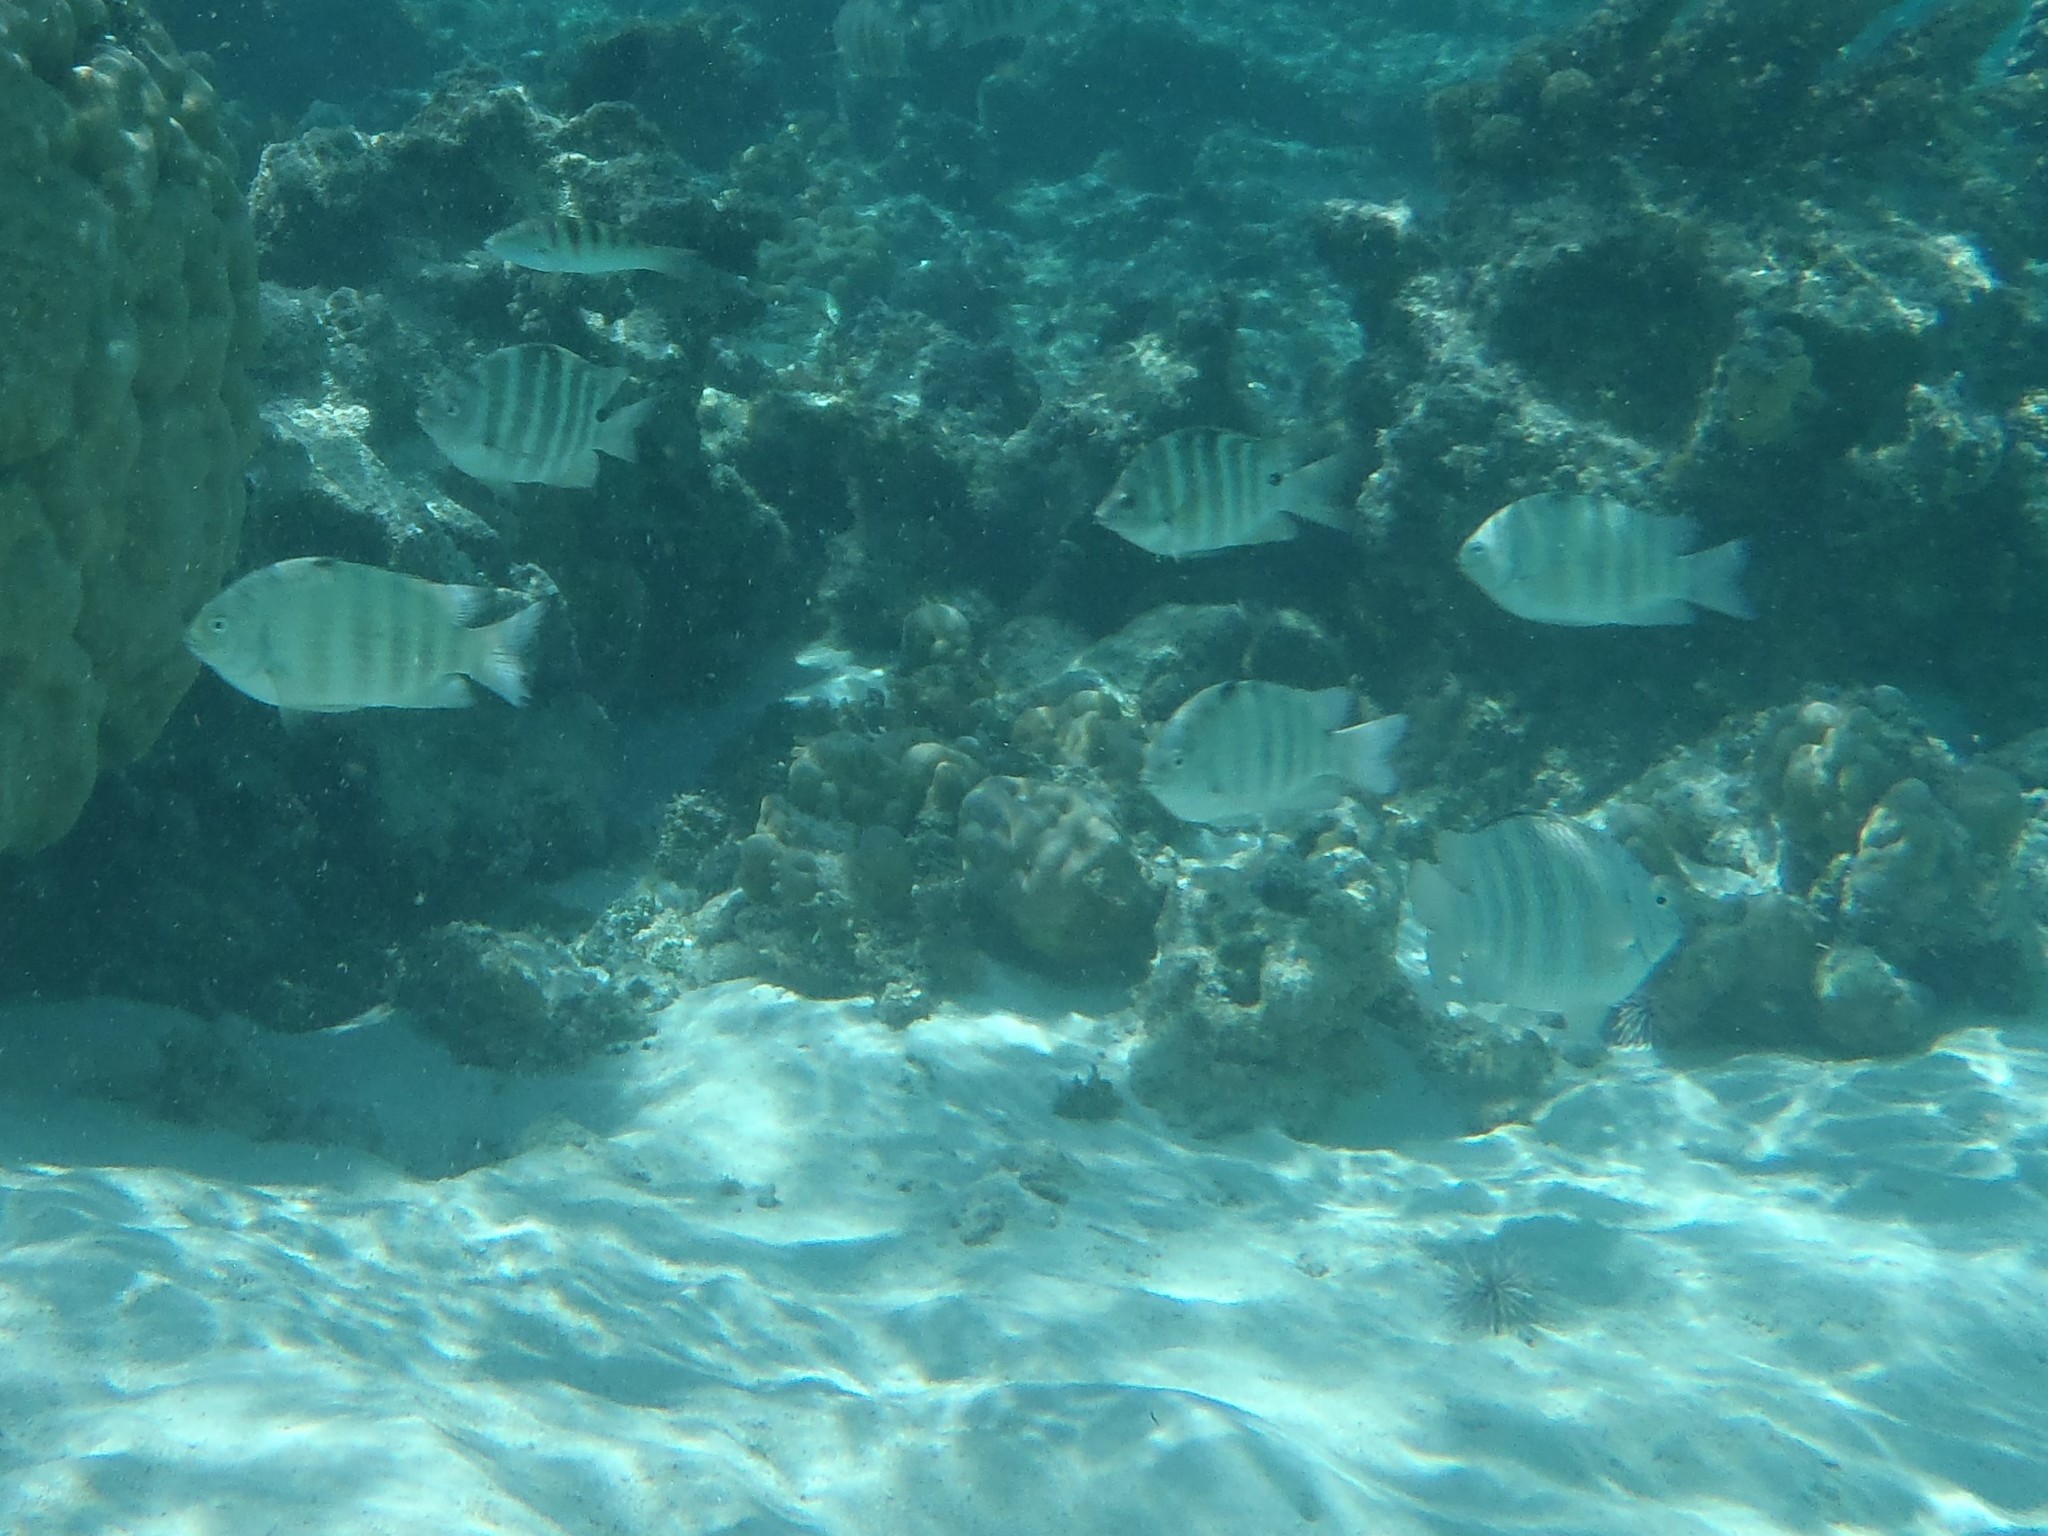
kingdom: Animalia
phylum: Chordata
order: Perciformes
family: Pomacentridae
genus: Abudefduf
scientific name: Abudefduf septemfasciatus
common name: Banded sergeant
